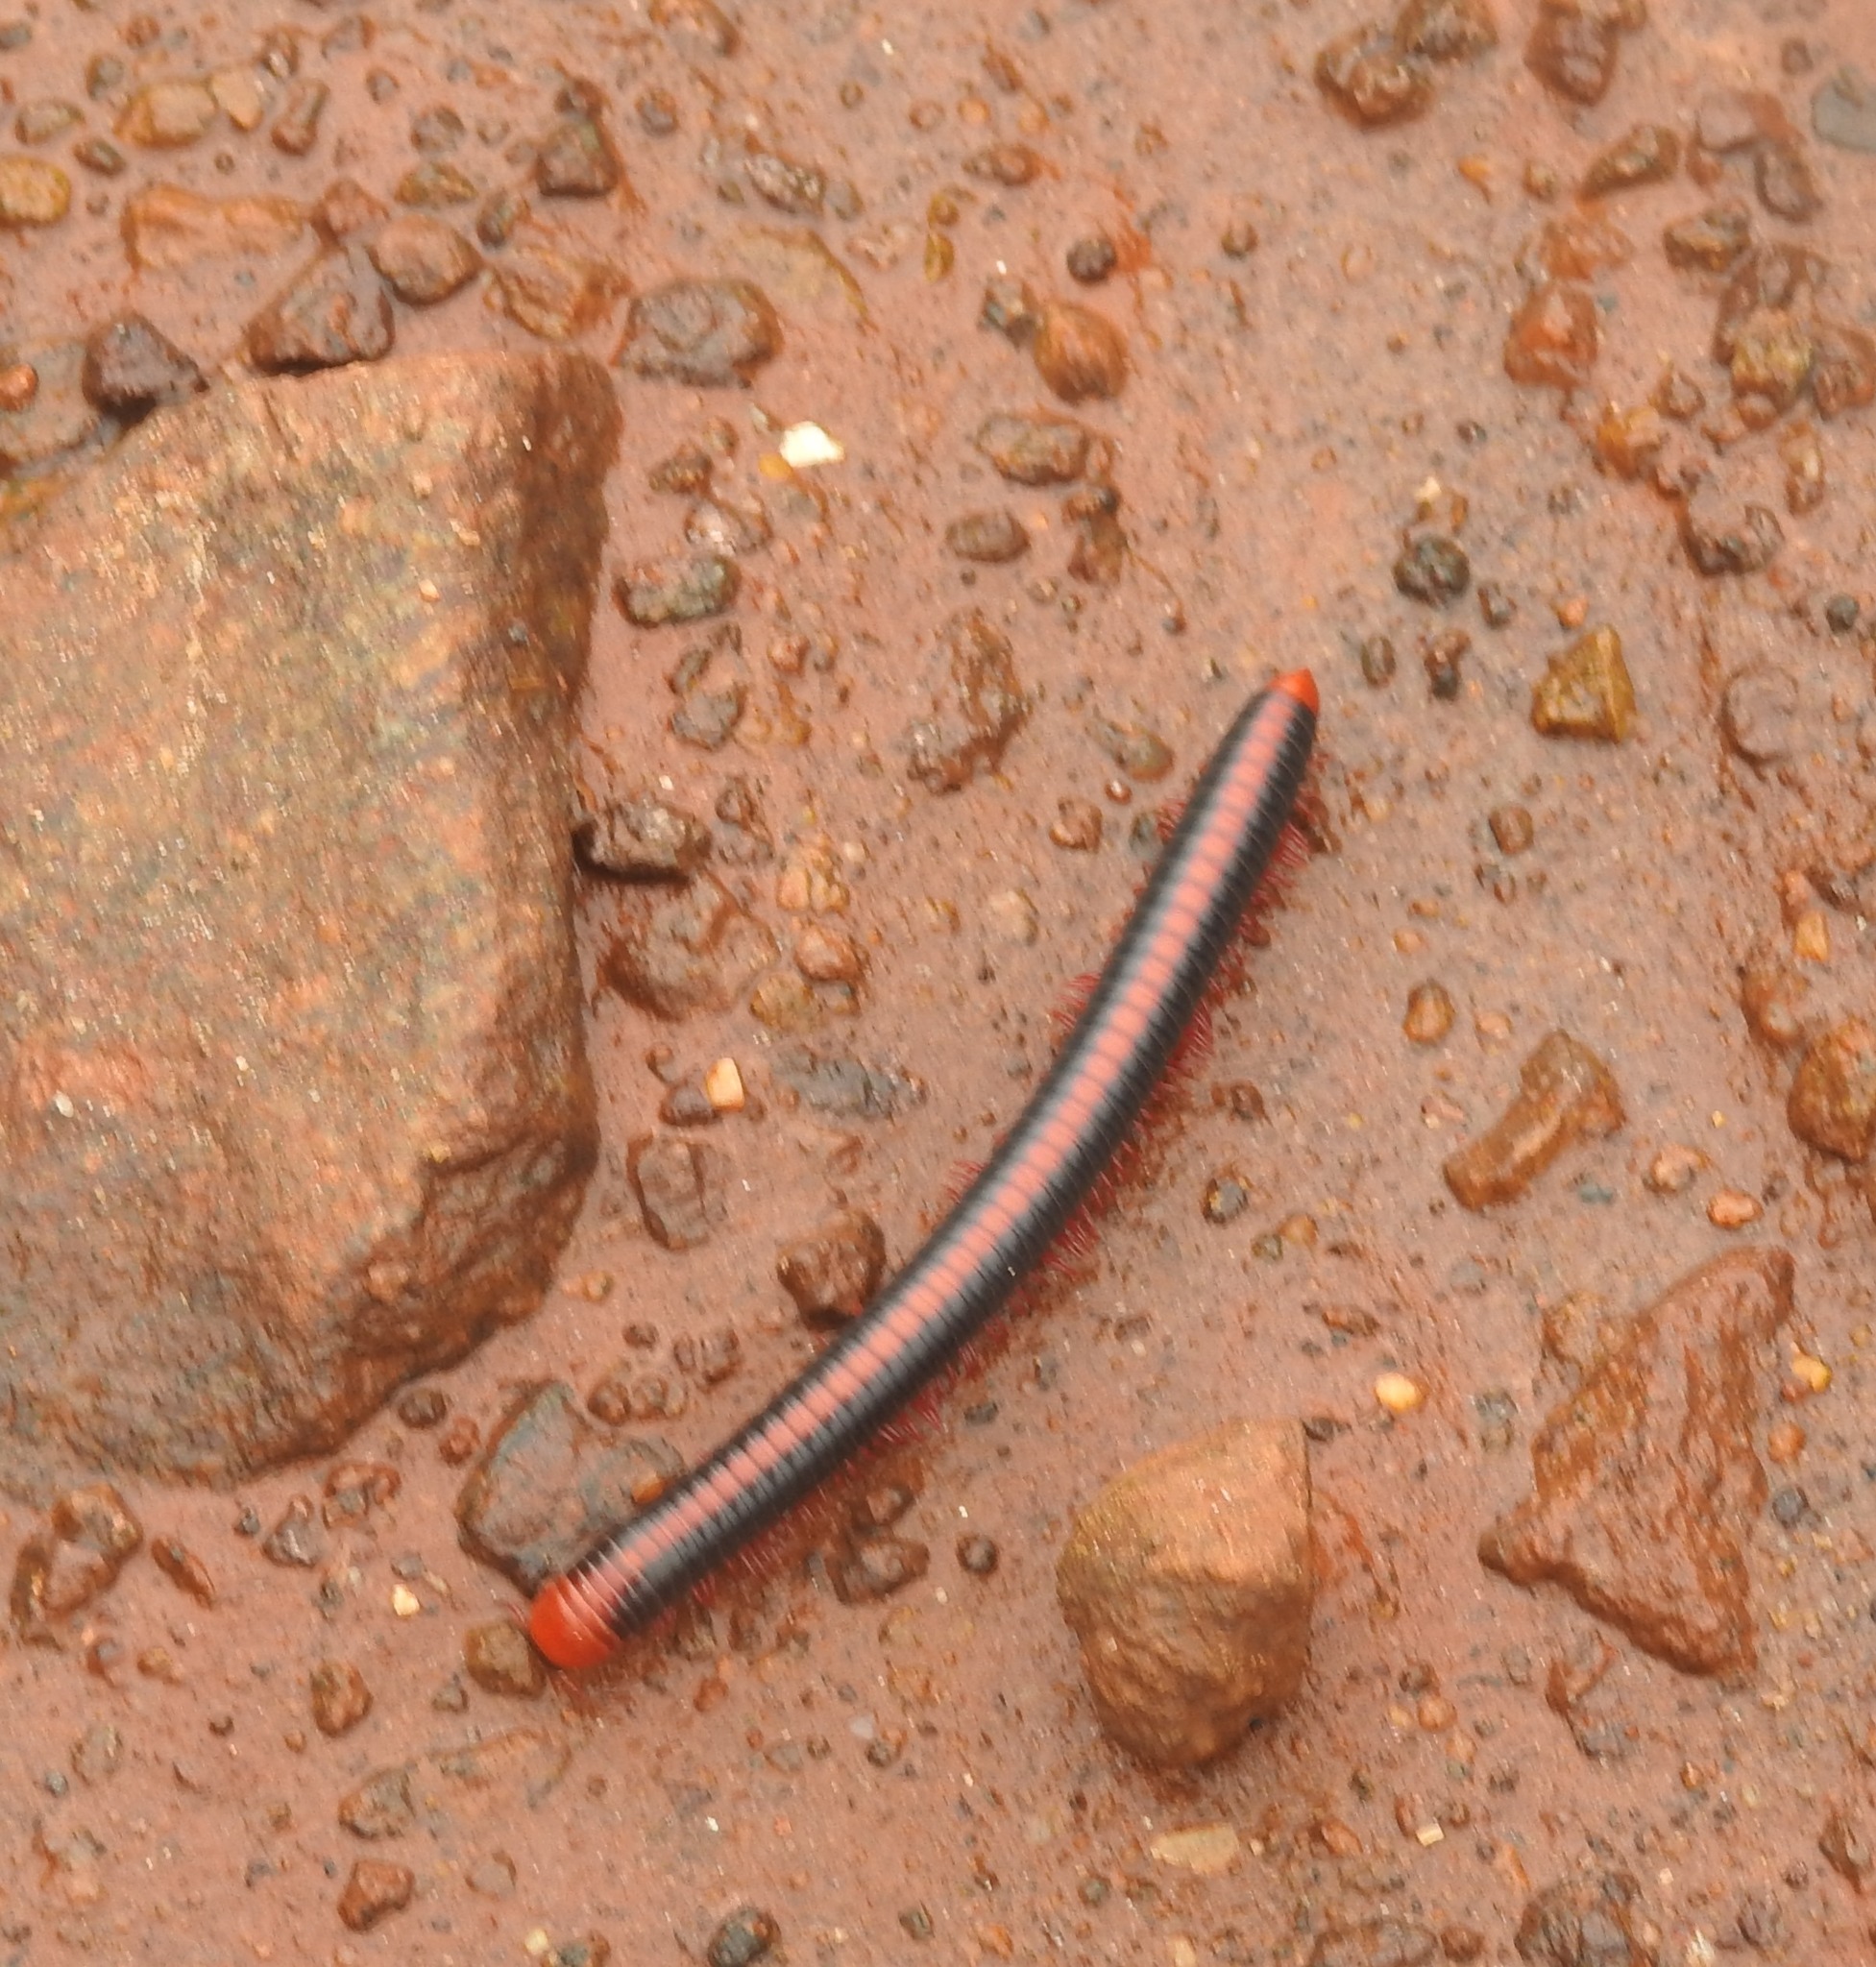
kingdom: Animalia
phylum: Arthropoda
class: Diplopoda
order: Spirobolida
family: Pachybolidae
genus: Xenobolus
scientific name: Xenobolus carnifex
